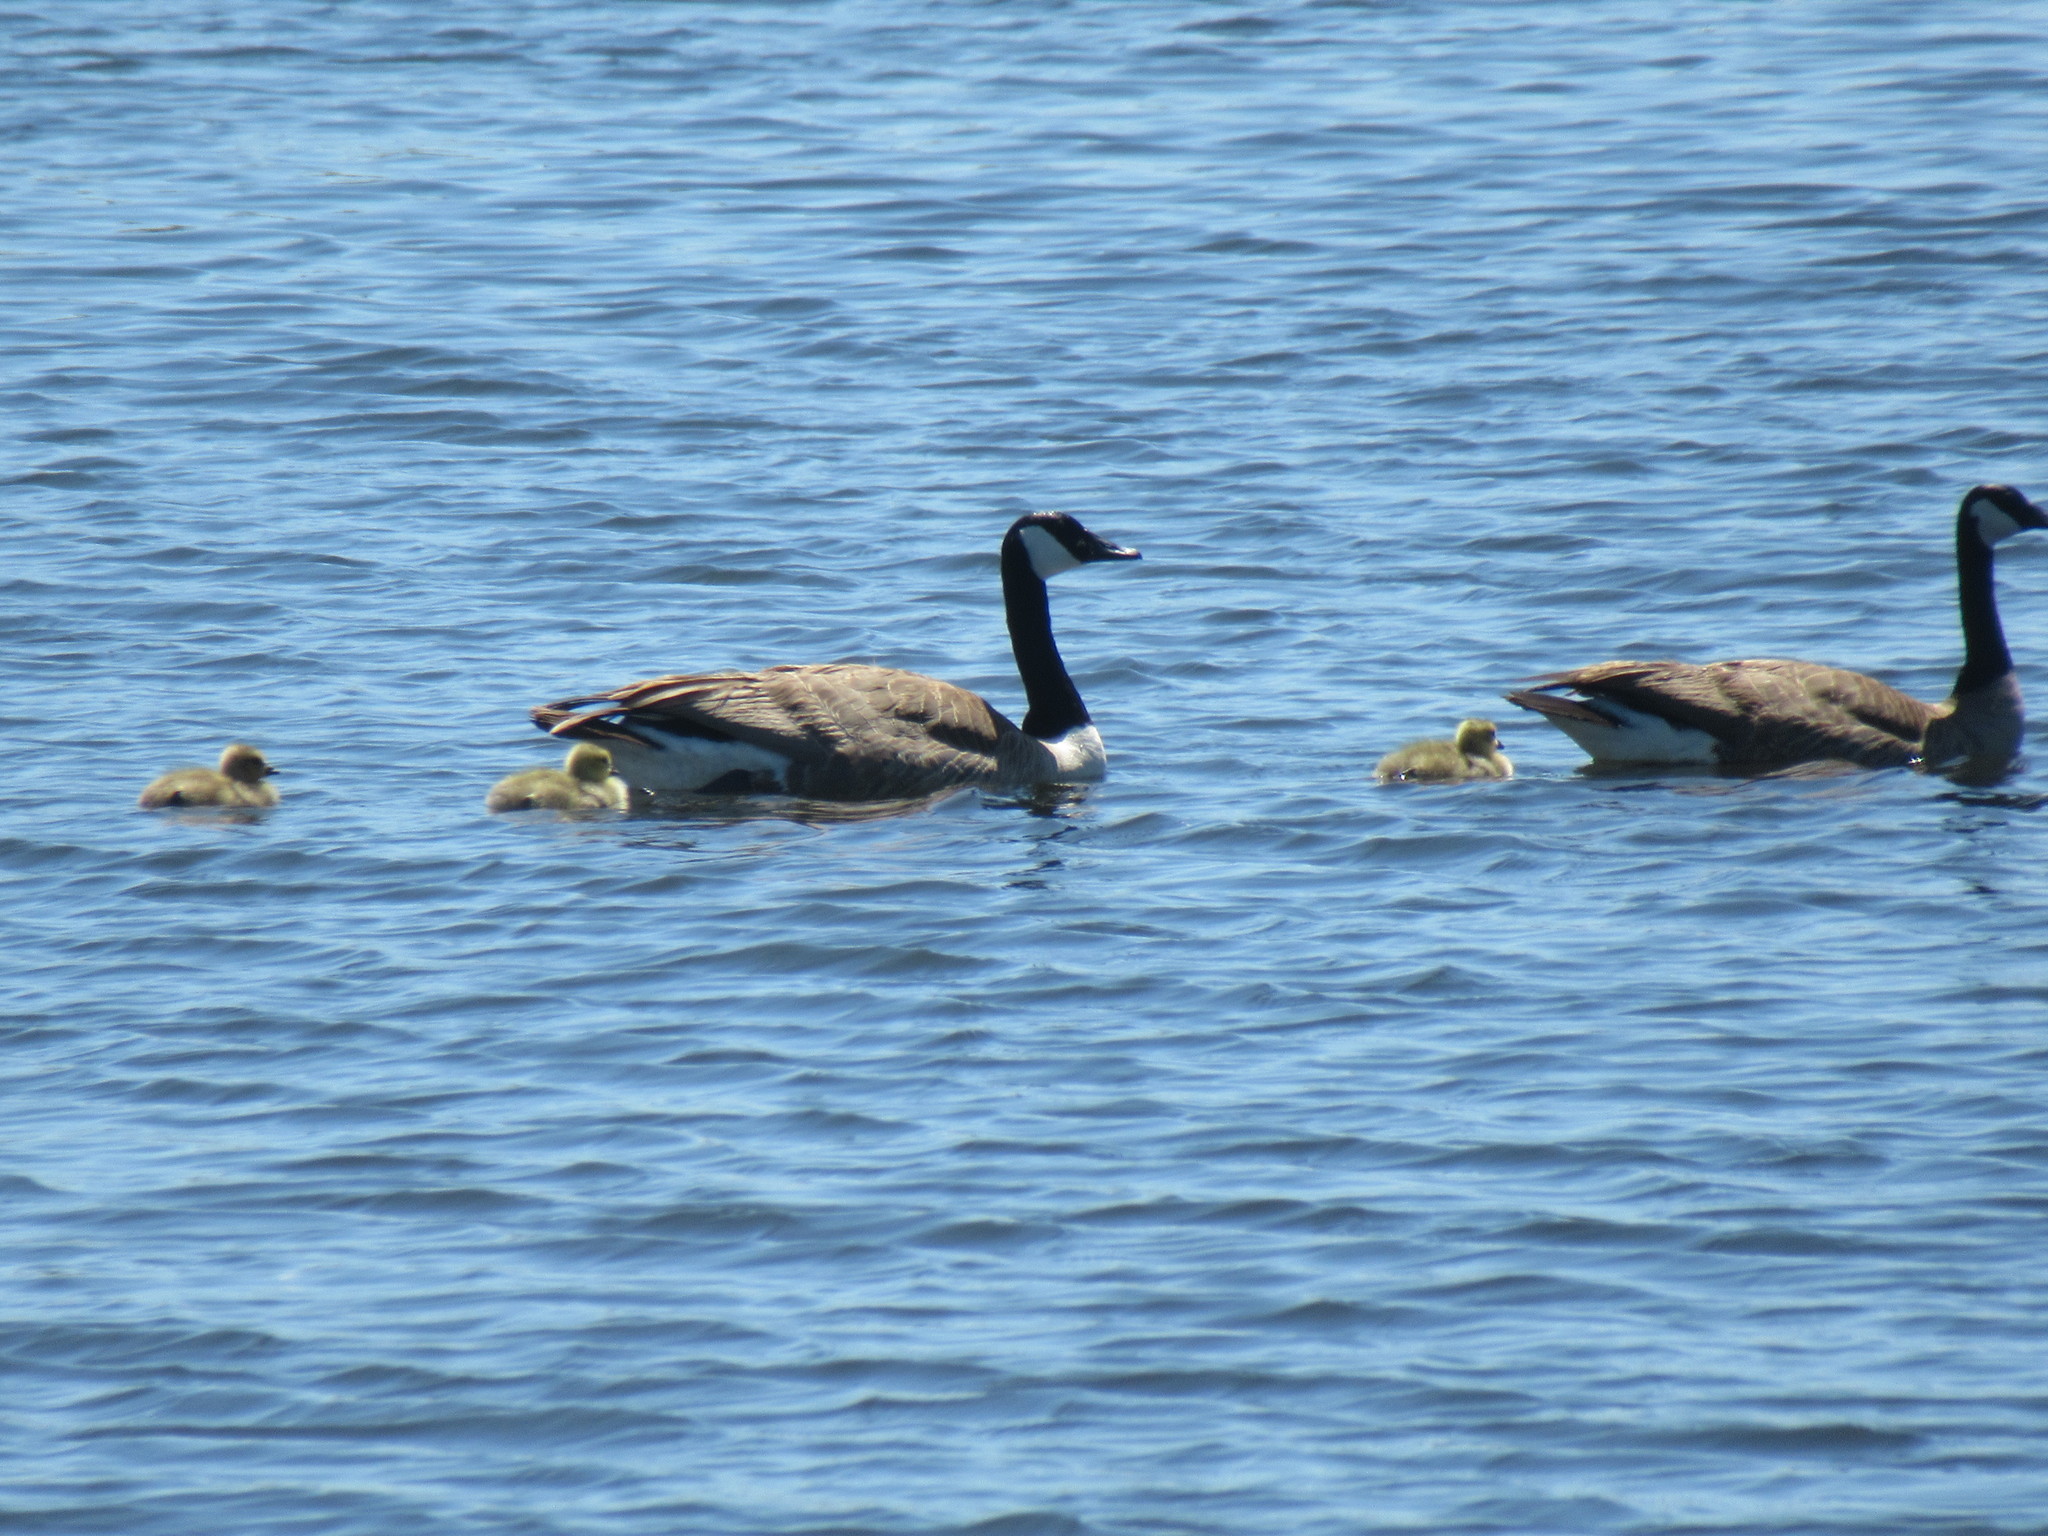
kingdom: Animalia
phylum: Chordata
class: Aves
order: Anseriformes
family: Anatidae
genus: Branta
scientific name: Branta canadensis
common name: Canada goose
